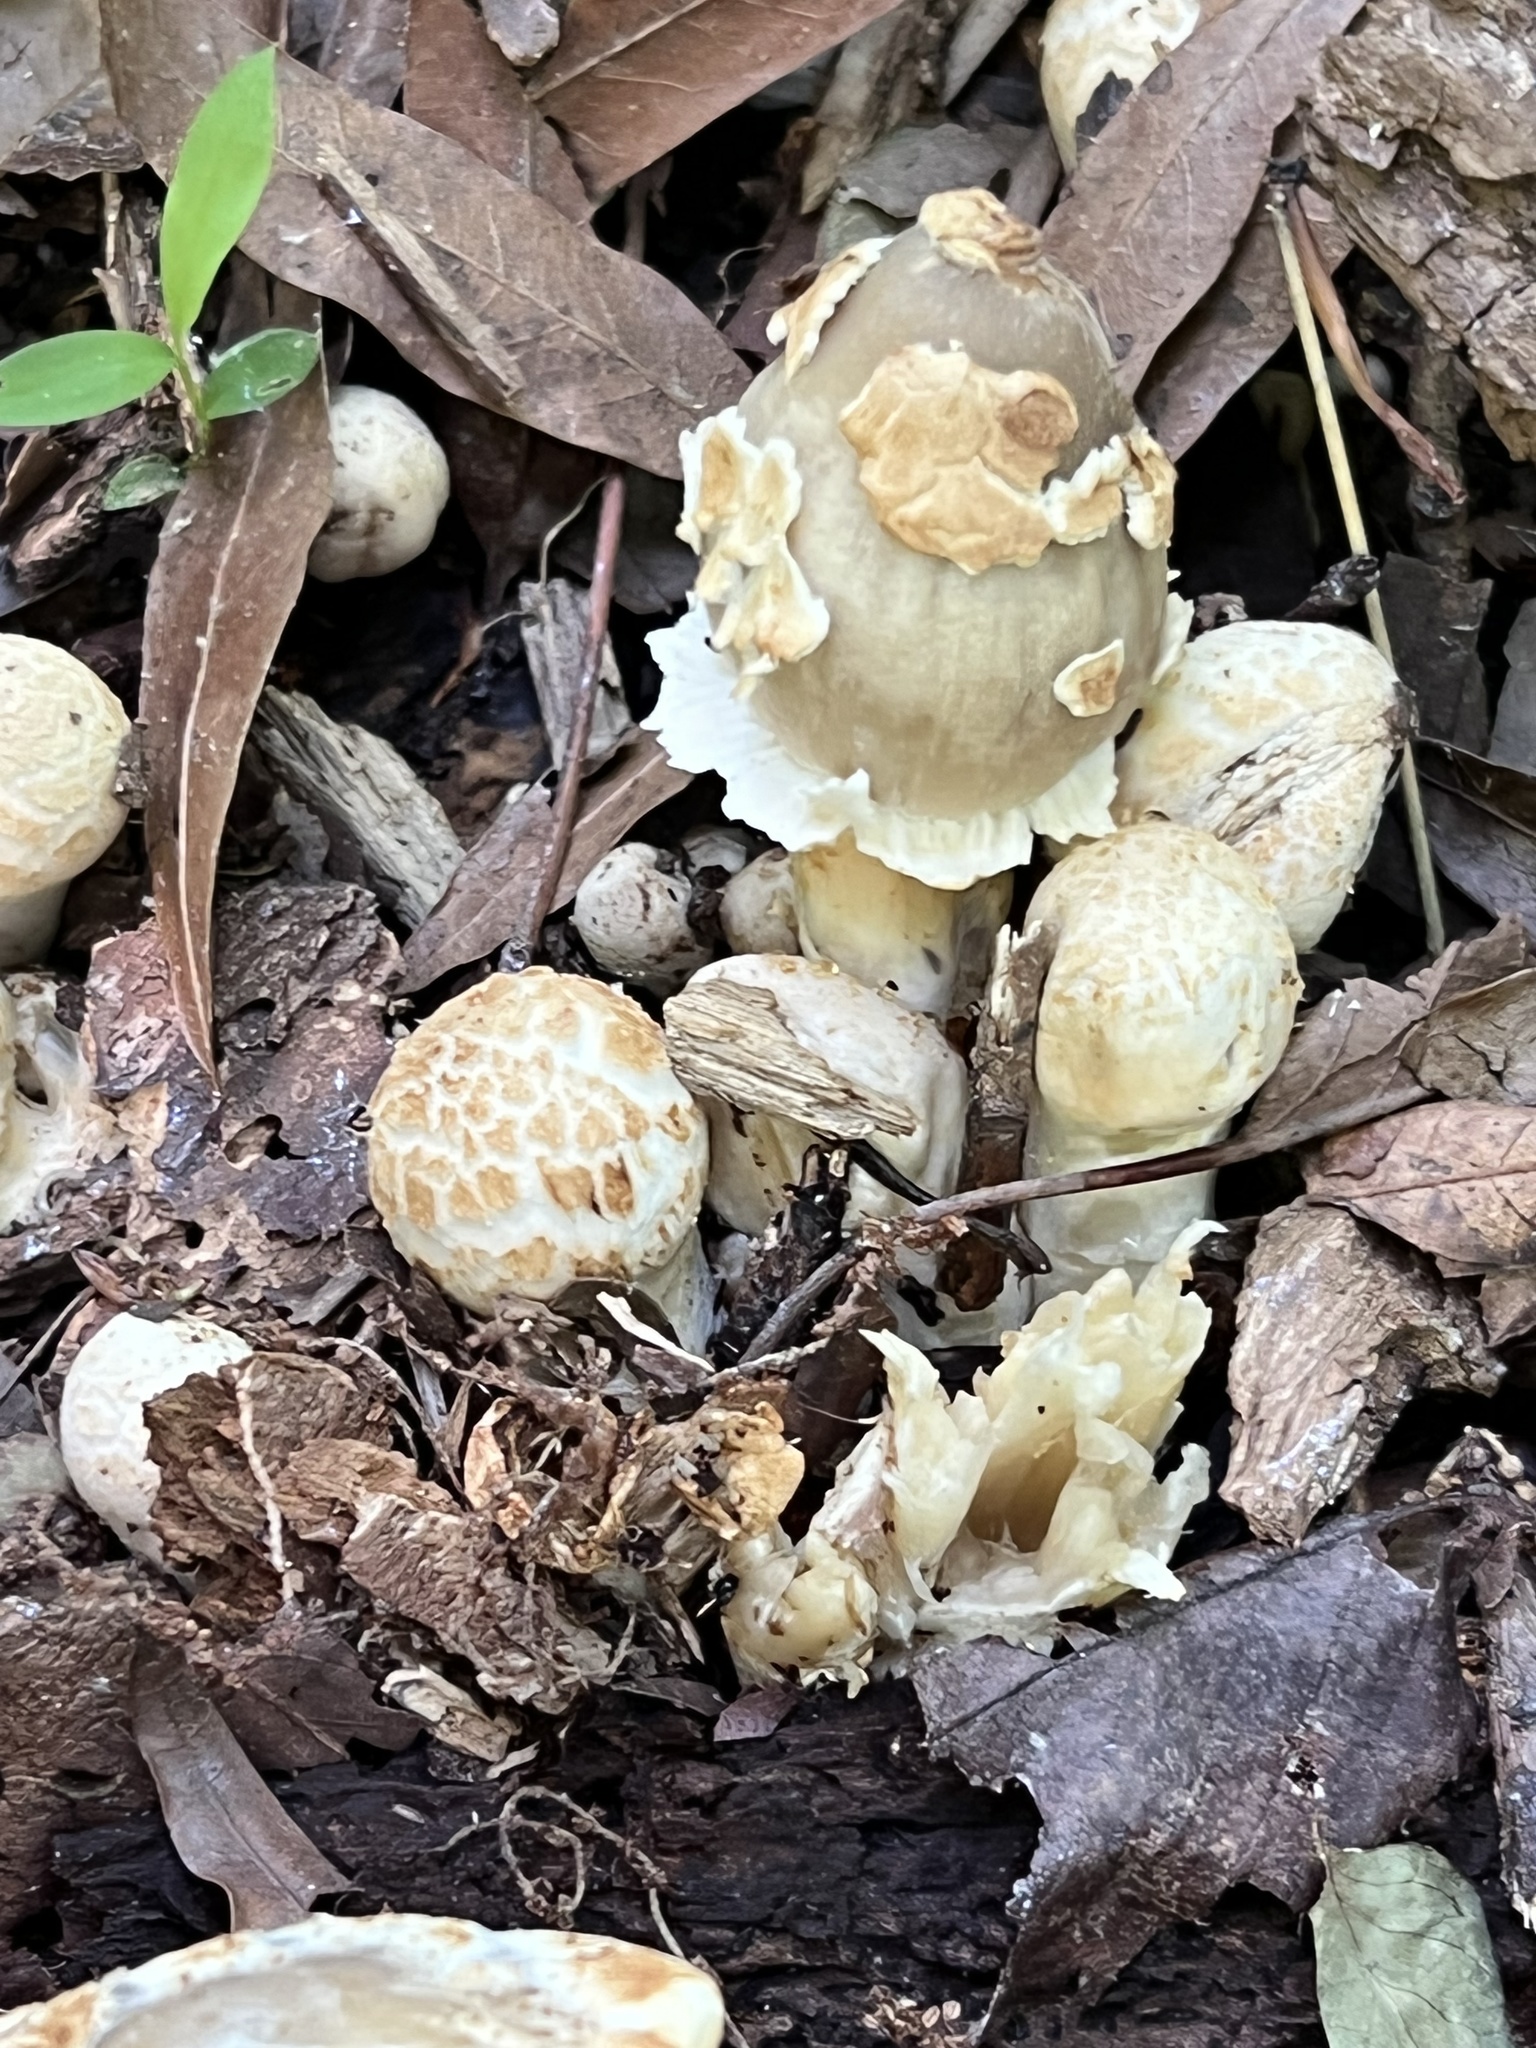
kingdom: Fungi
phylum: Basidiomycota
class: Agaricomycetes
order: Agaricales
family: Psathyrellaceae
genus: Coprinopsis
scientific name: Coprinopsis variegata
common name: Scaly ink cap
